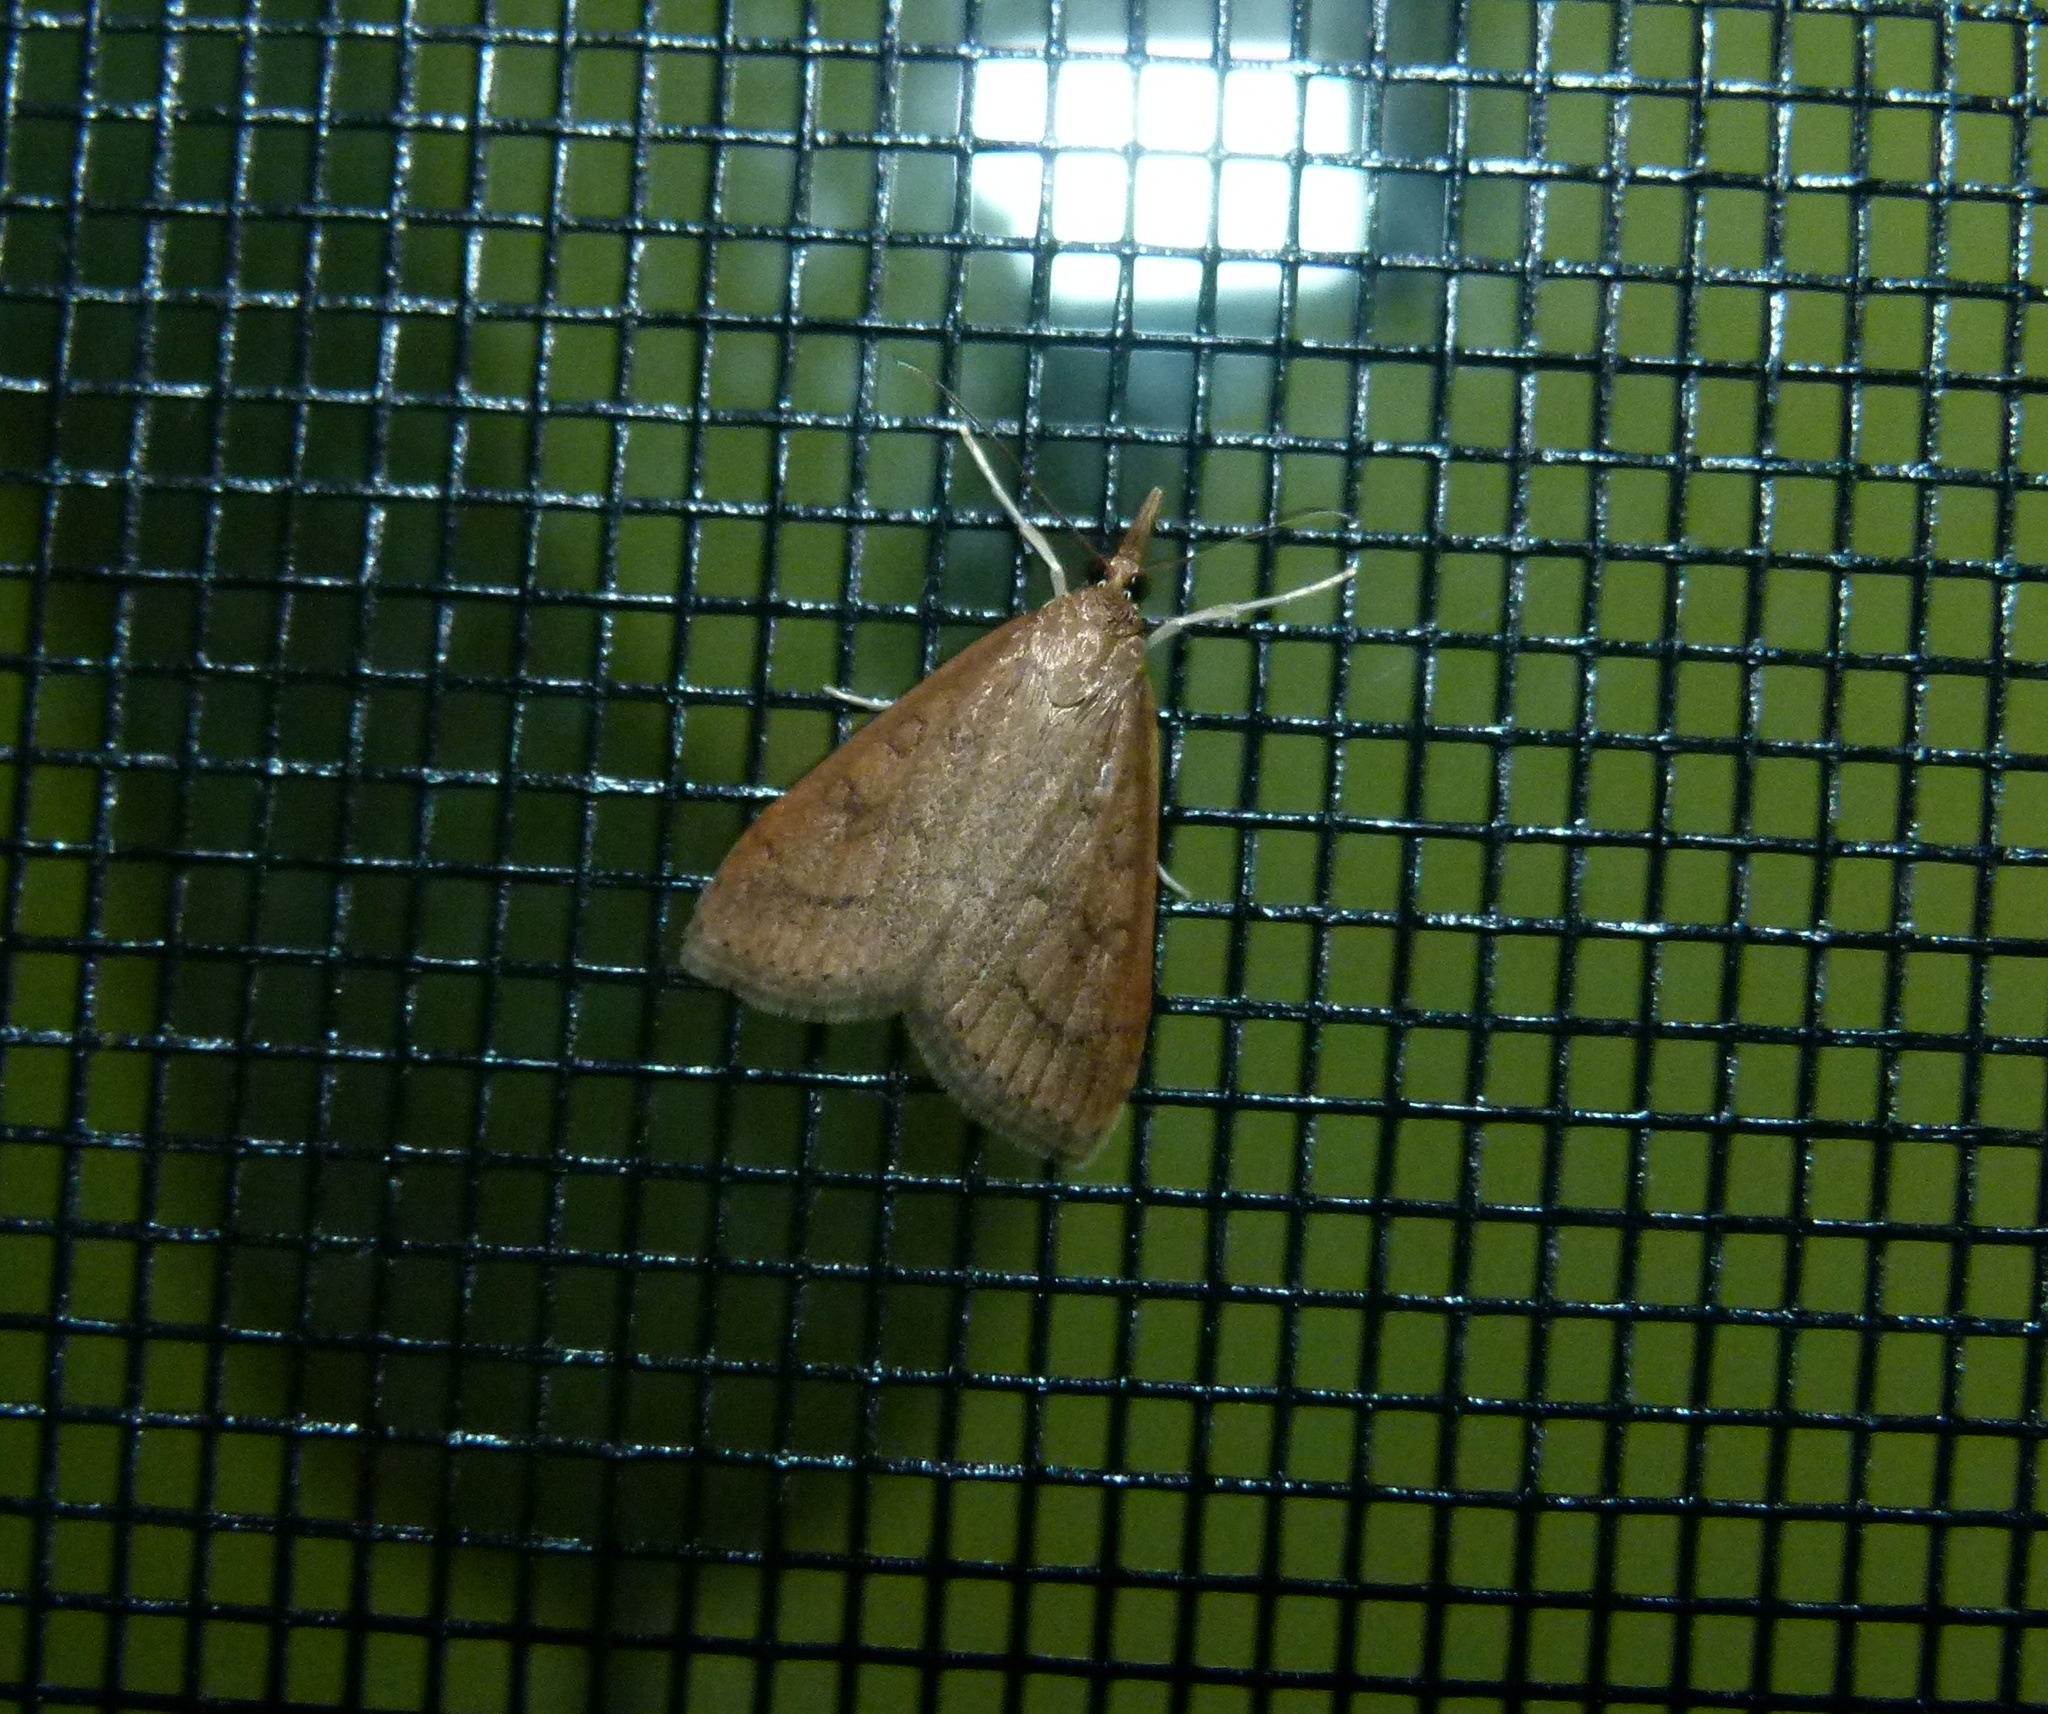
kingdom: Animalia
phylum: Arthropoda
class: Insecta
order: Lepidoptera
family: Crambidae
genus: Udea
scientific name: Udea rubigalis
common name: Celery leaftier moth
